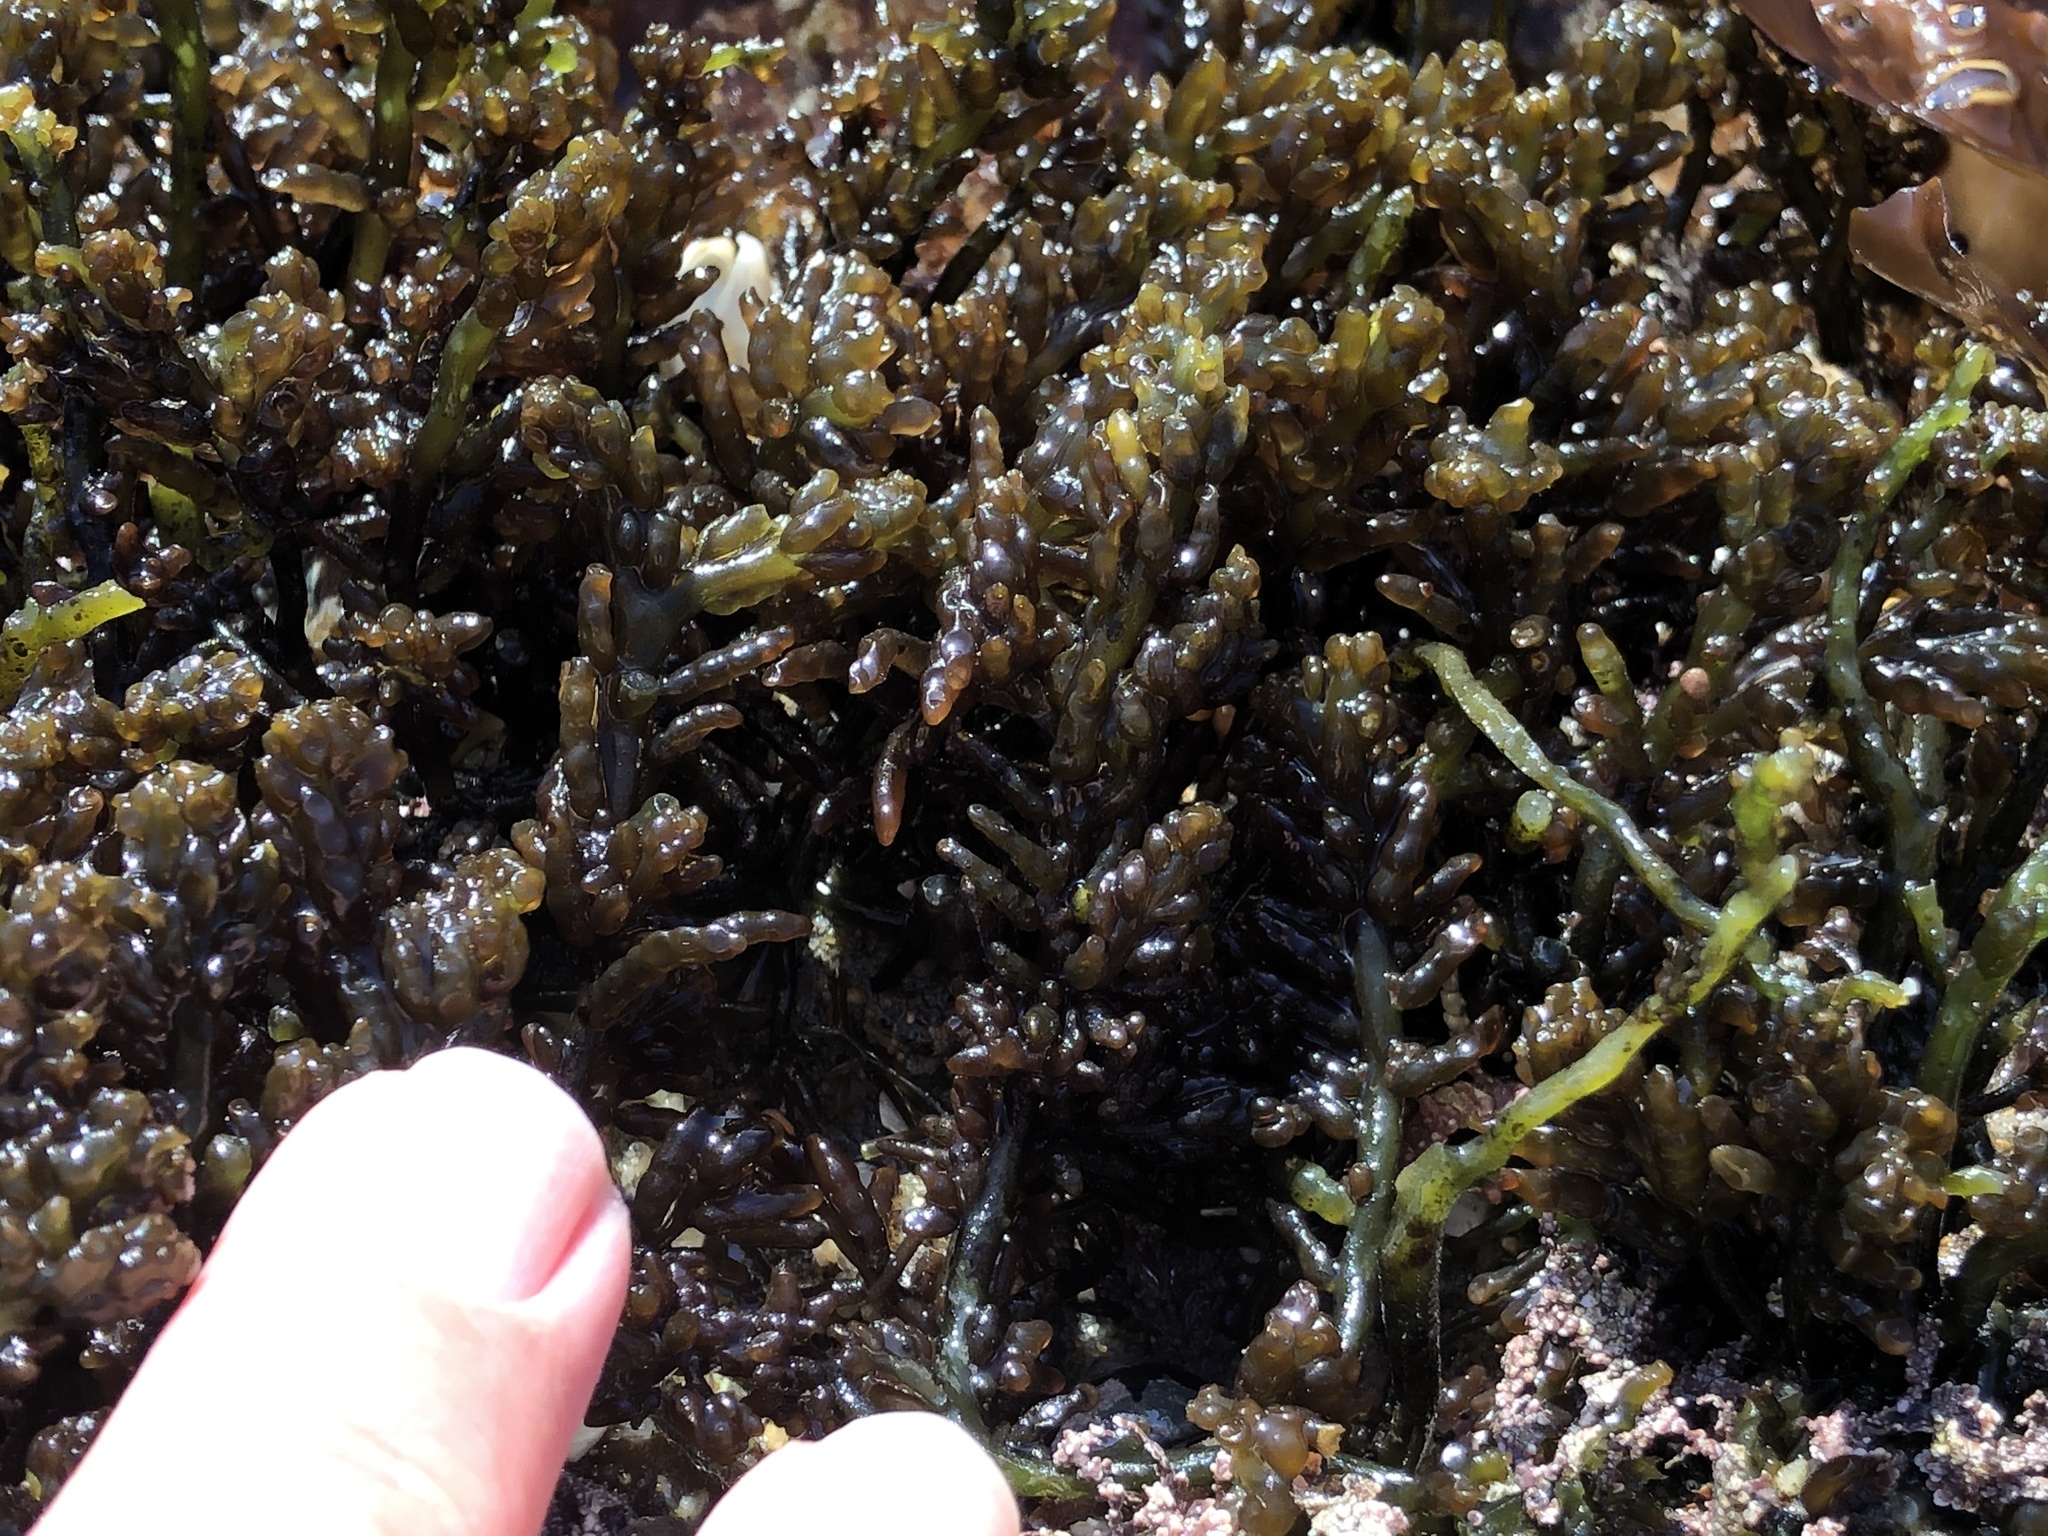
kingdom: Plantae
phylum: Rhodophyta
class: Florideophyceae
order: Rhodymeniales
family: Champiaceae
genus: Neogastroclonium
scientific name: Neogastroclonium subarticulatum
